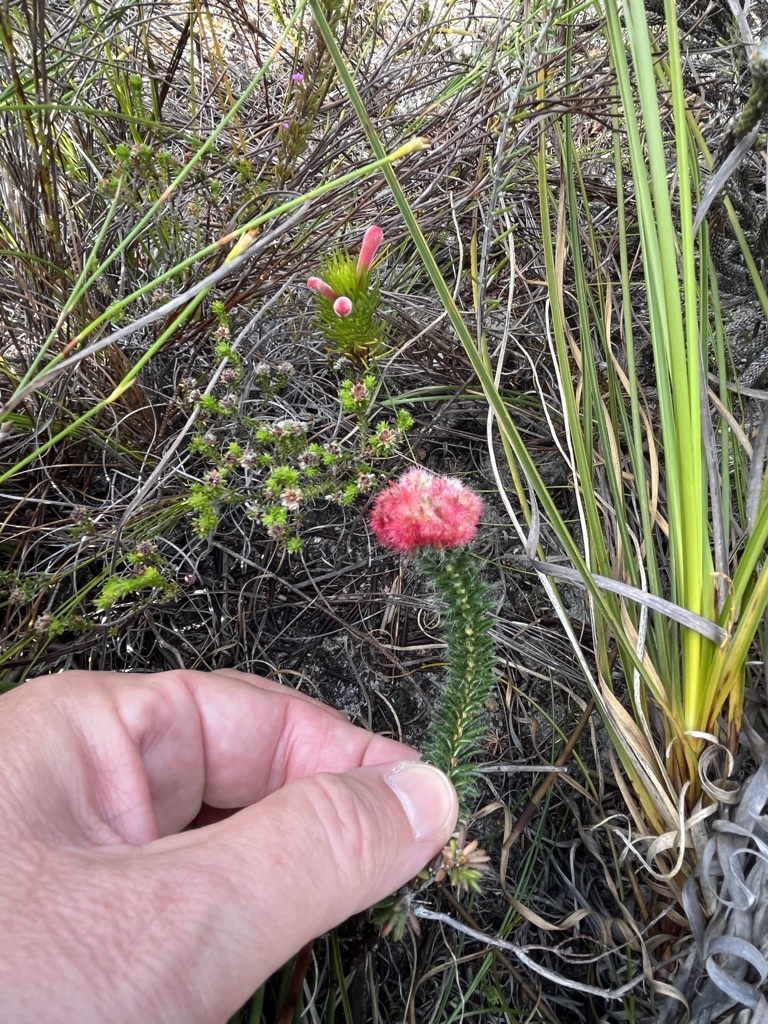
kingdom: Plantae
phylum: Tracheophyta
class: Magnoliopsida
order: Ericales
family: Ericaceae
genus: Erica
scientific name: Erica cerinthoides
